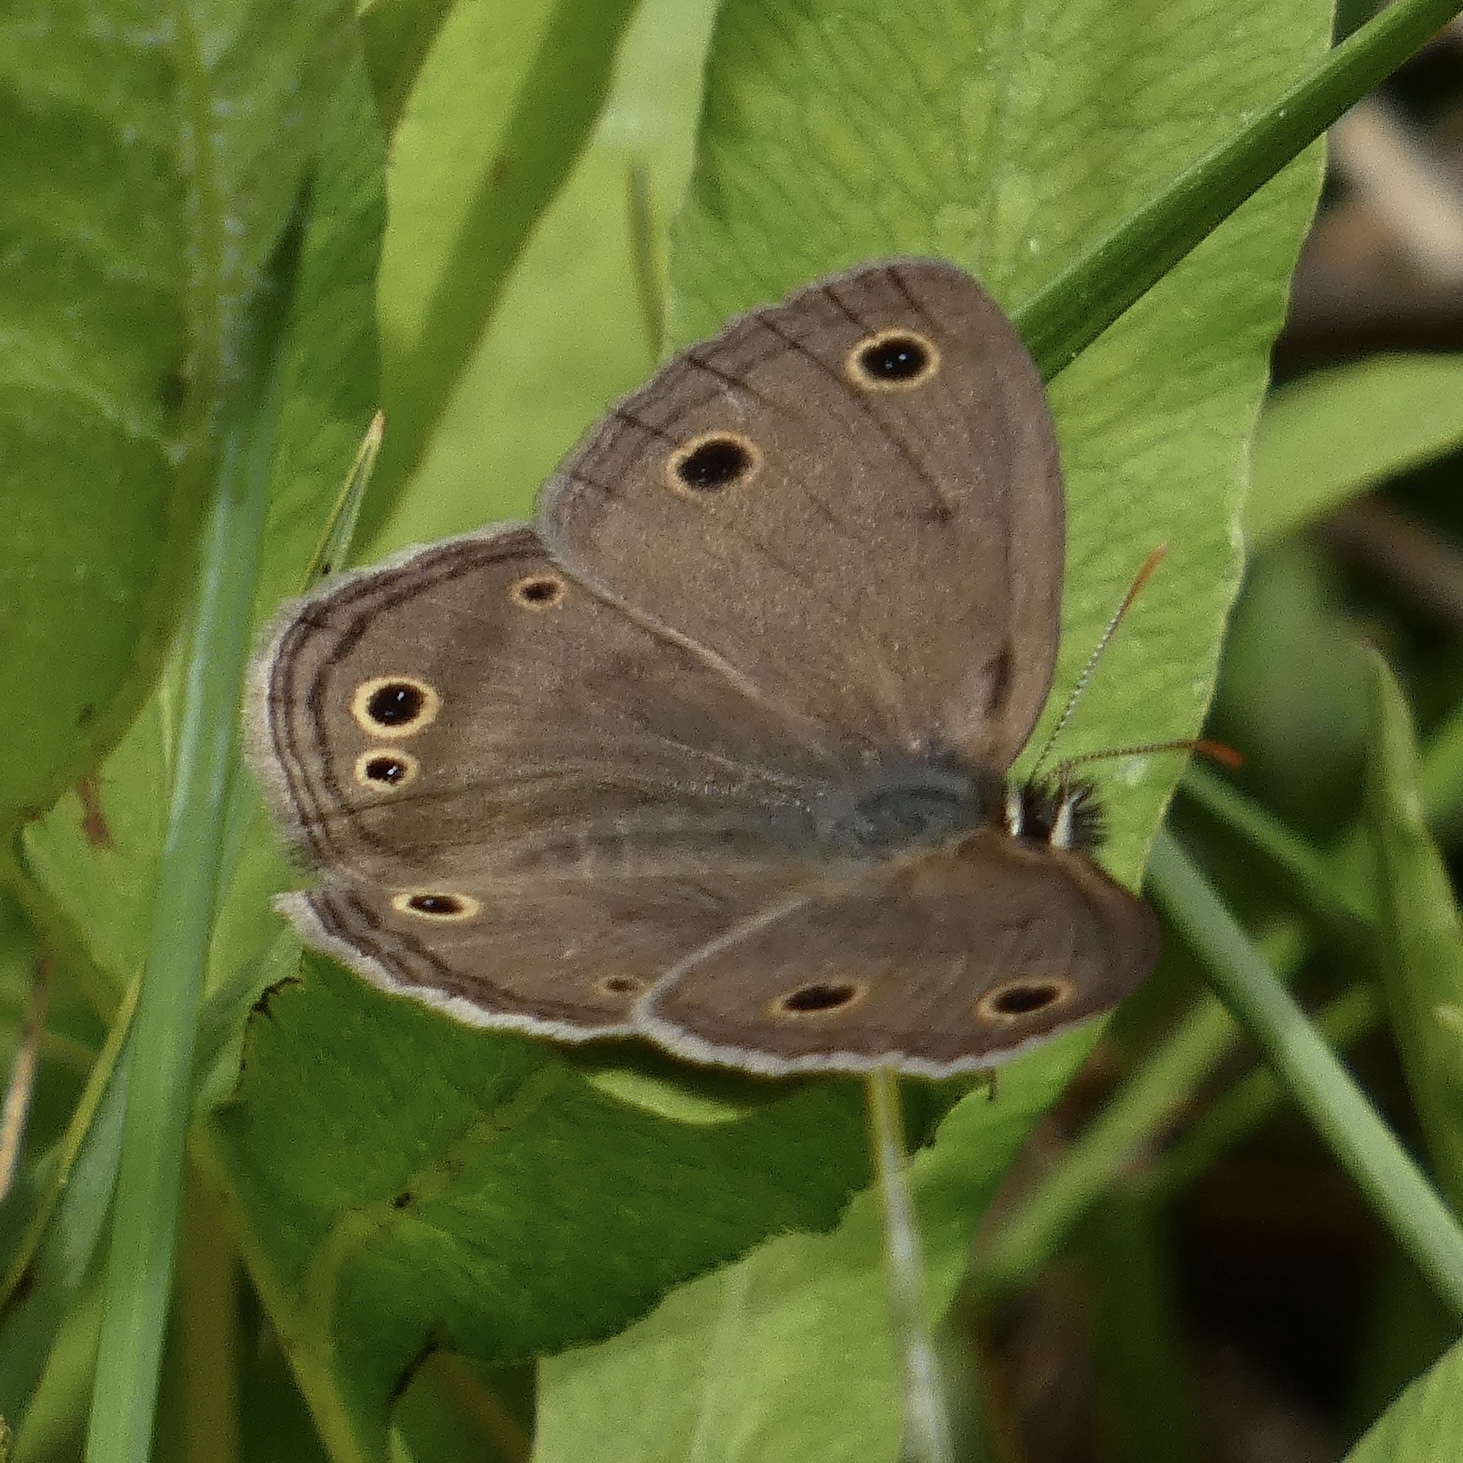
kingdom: Animalia
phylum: Arthropoda
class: Insecta
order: Lepidoptera
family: Nymphalidae
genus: Euptychia
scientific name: Euptychia cymela
